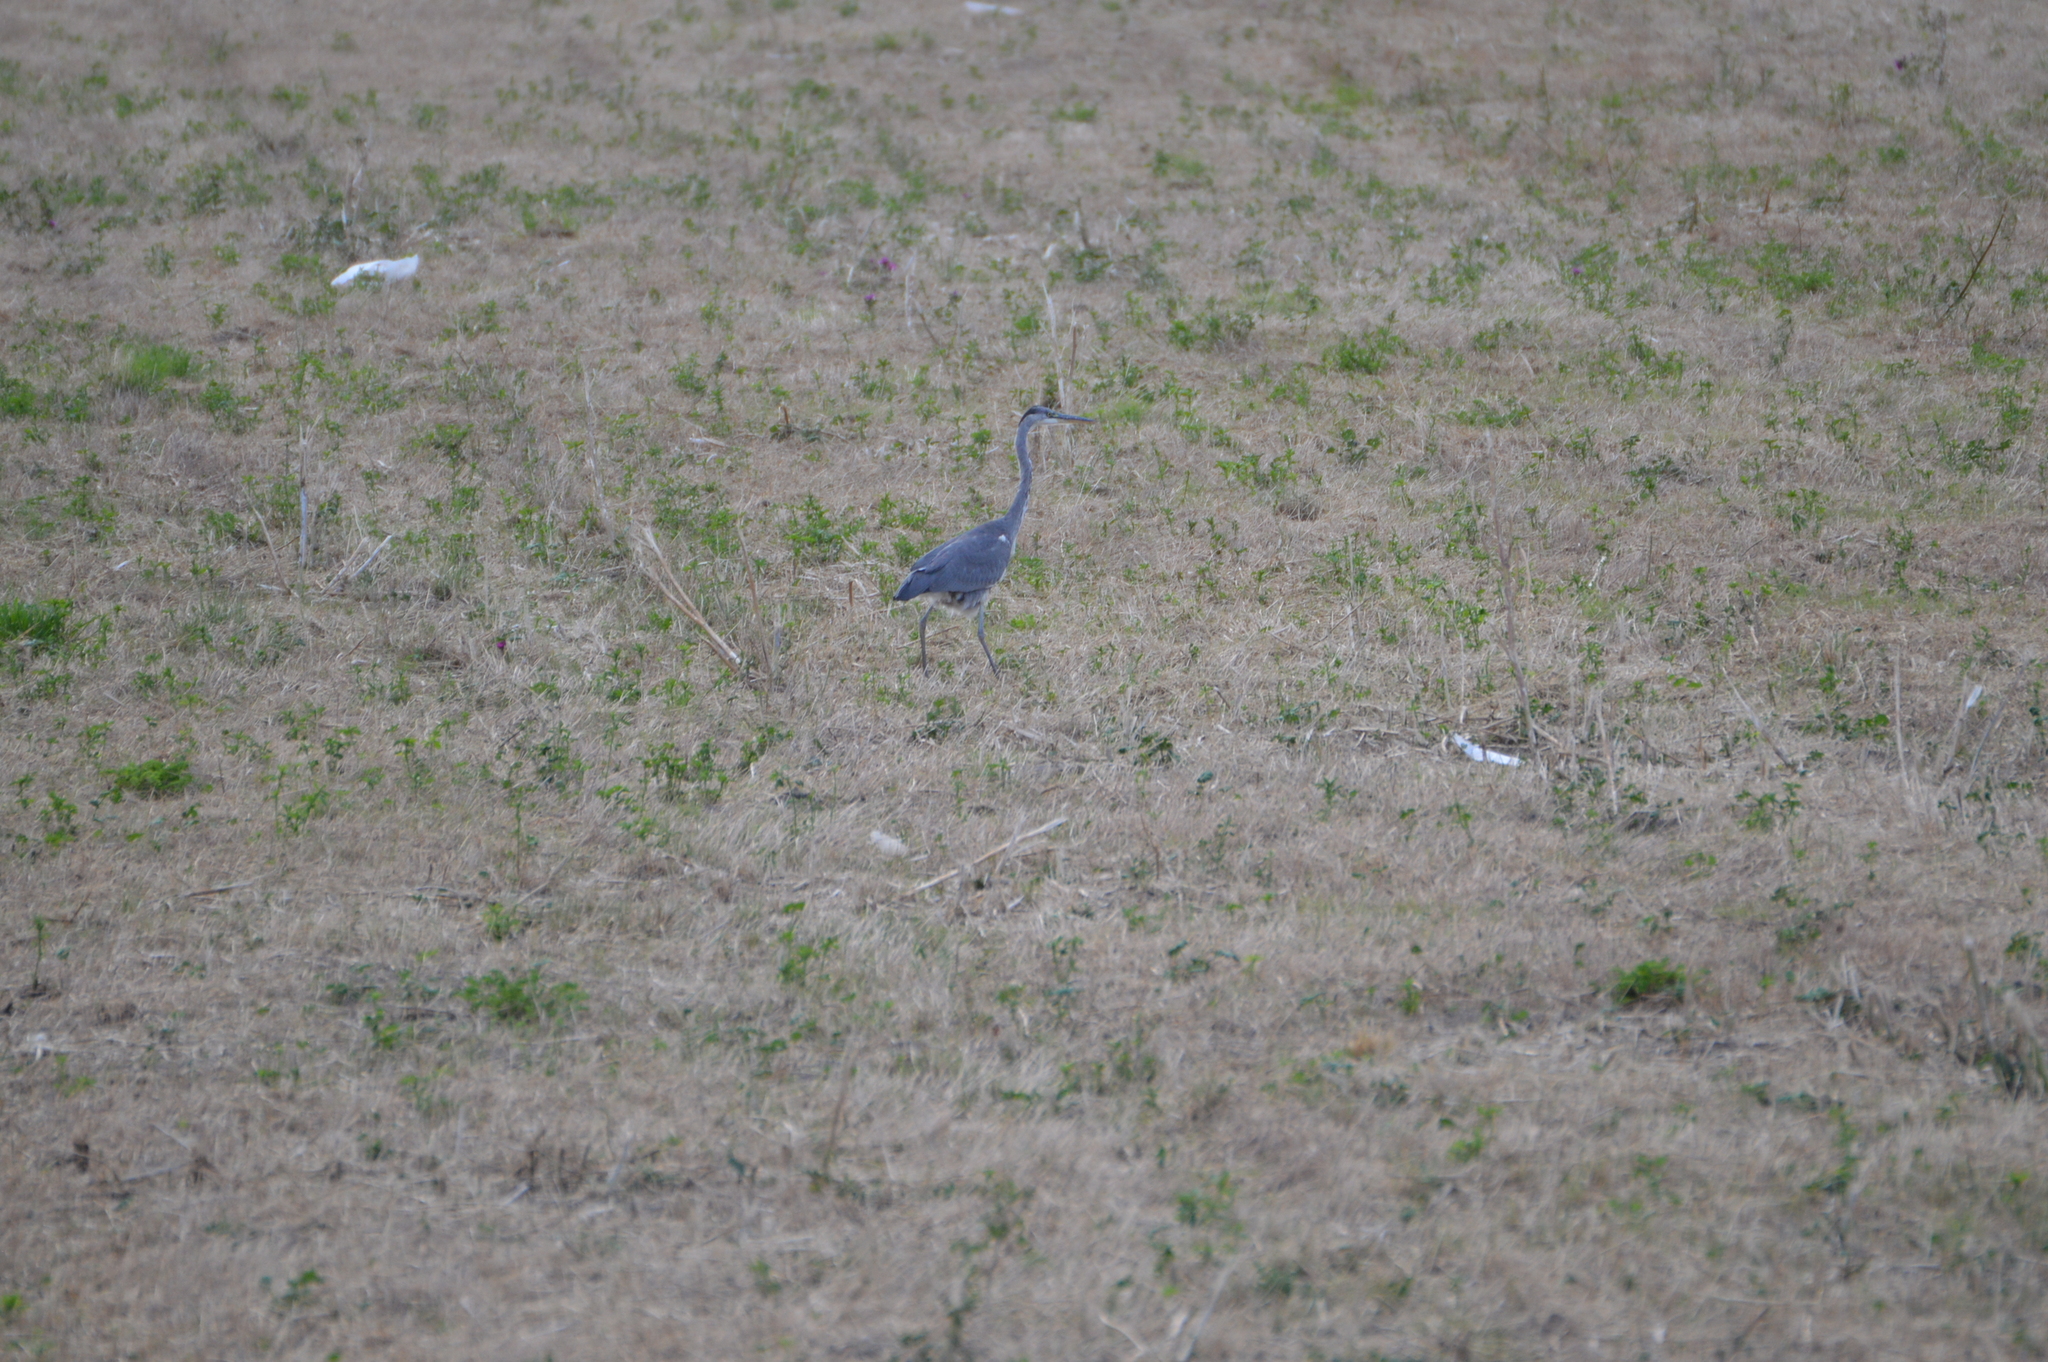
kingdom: Animalia
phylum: Chordata
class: Aves
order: Pelecaniformes
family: Ardeidae
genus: Ardea
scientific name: Ardea cinerea
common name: Grey heron
